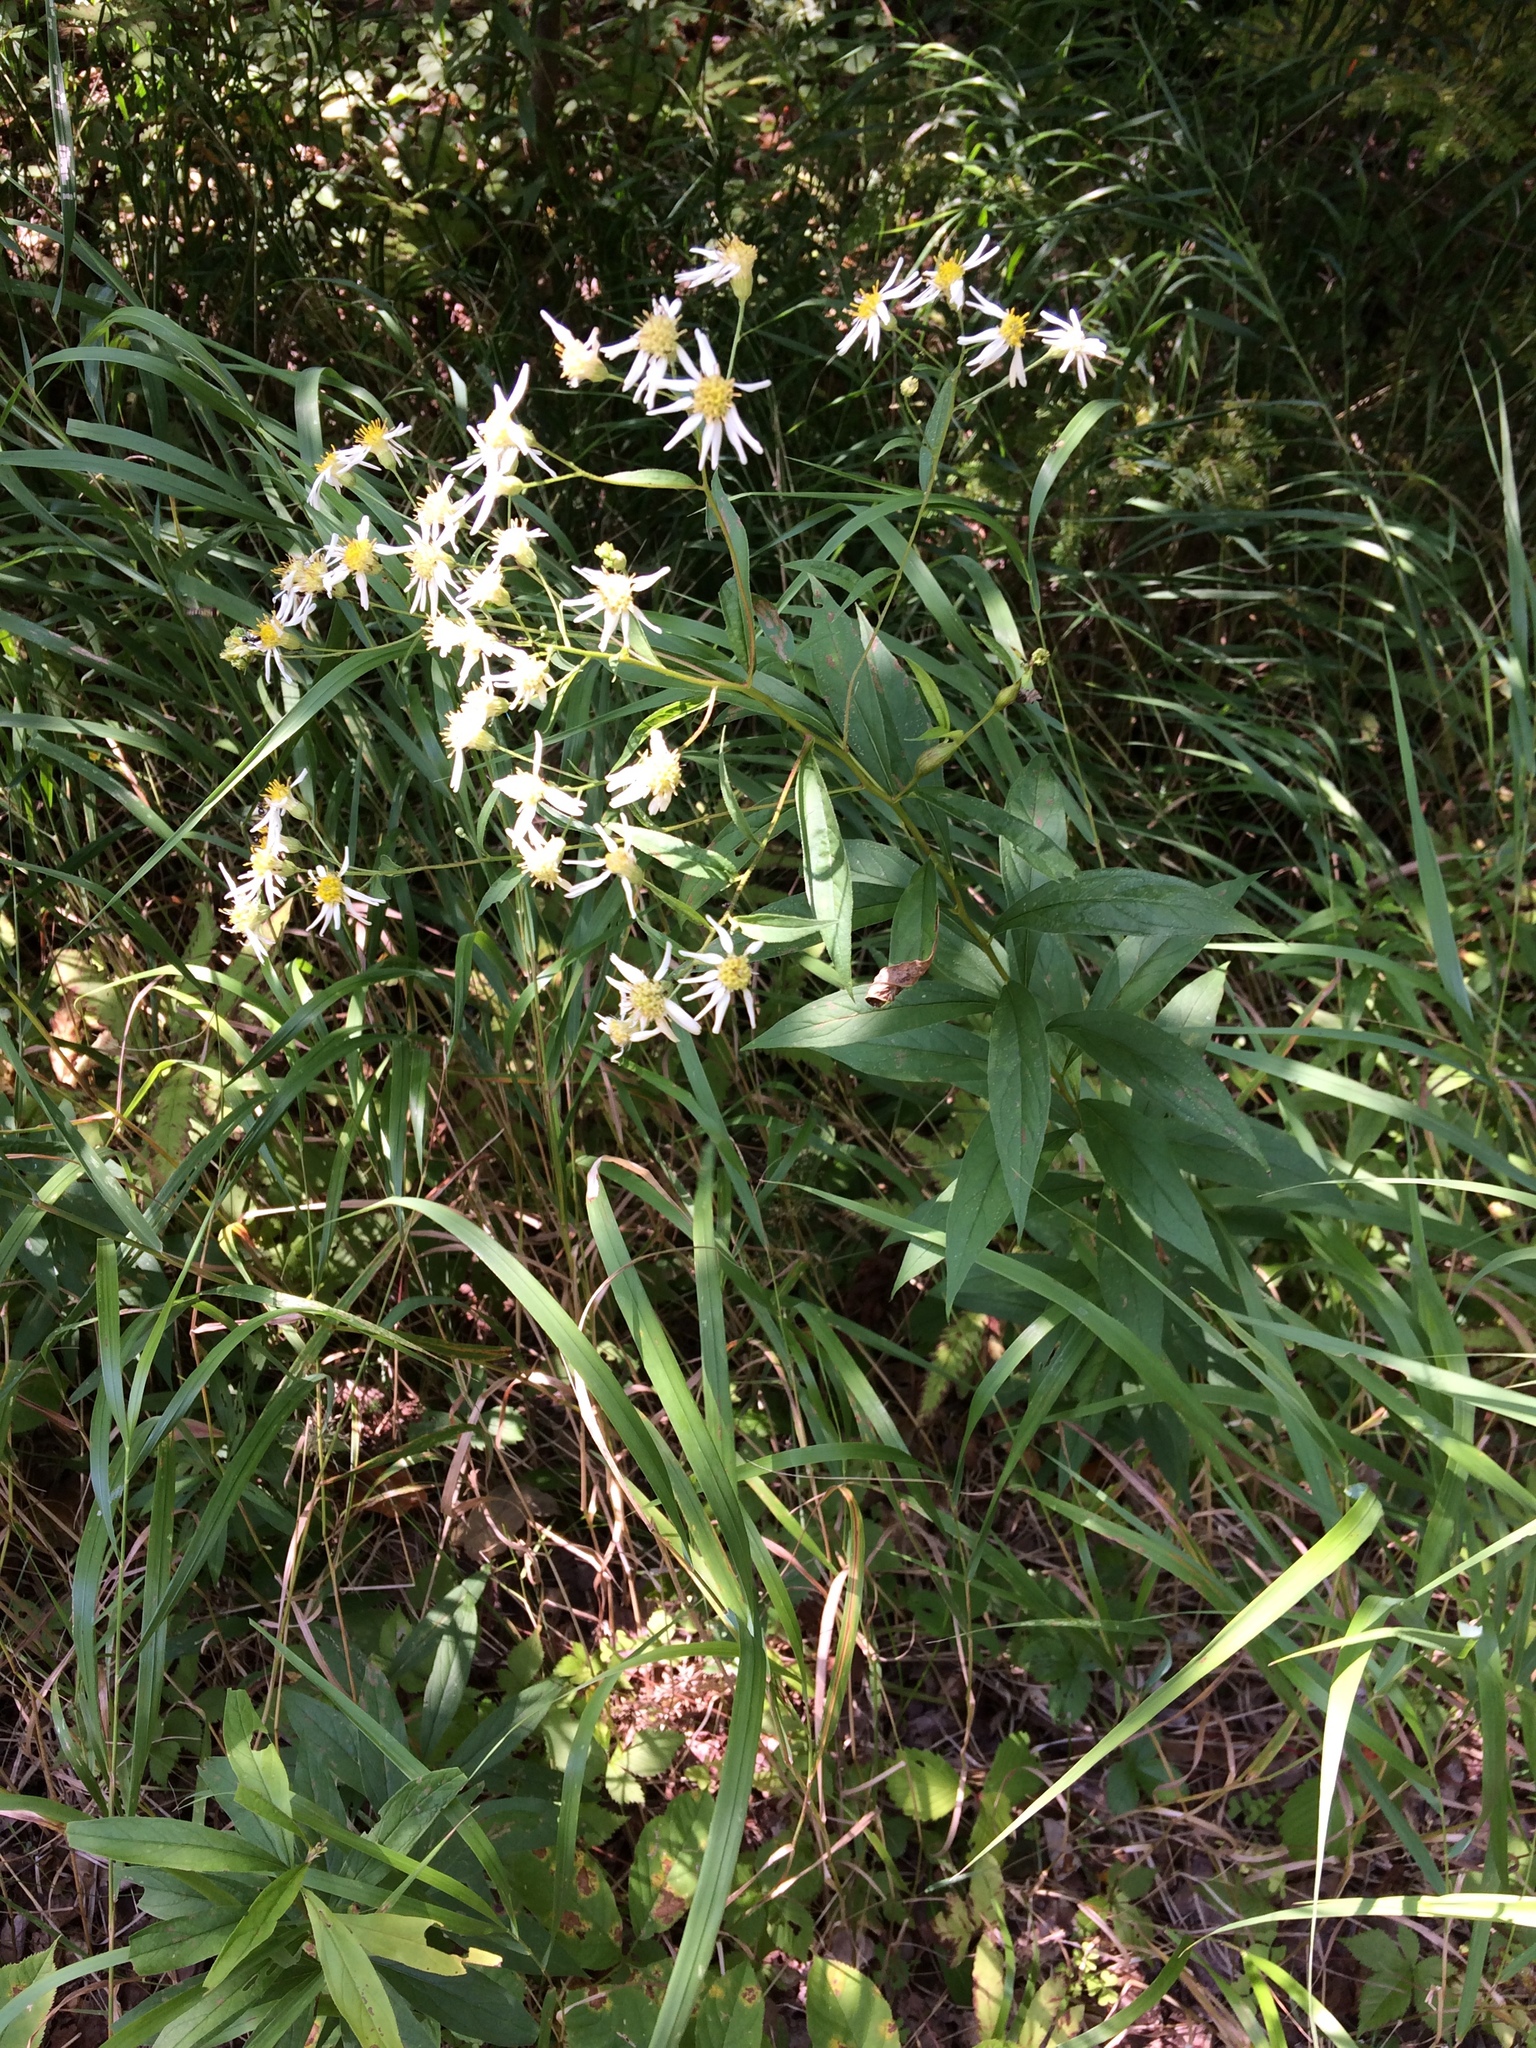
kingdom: Plantae
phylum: Tracheophyta
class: Magnoliopsida
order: Asterales
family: Asteraceae
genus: Doellingeria
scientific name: Doellingeria umbellata
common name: Flat-top white aster
